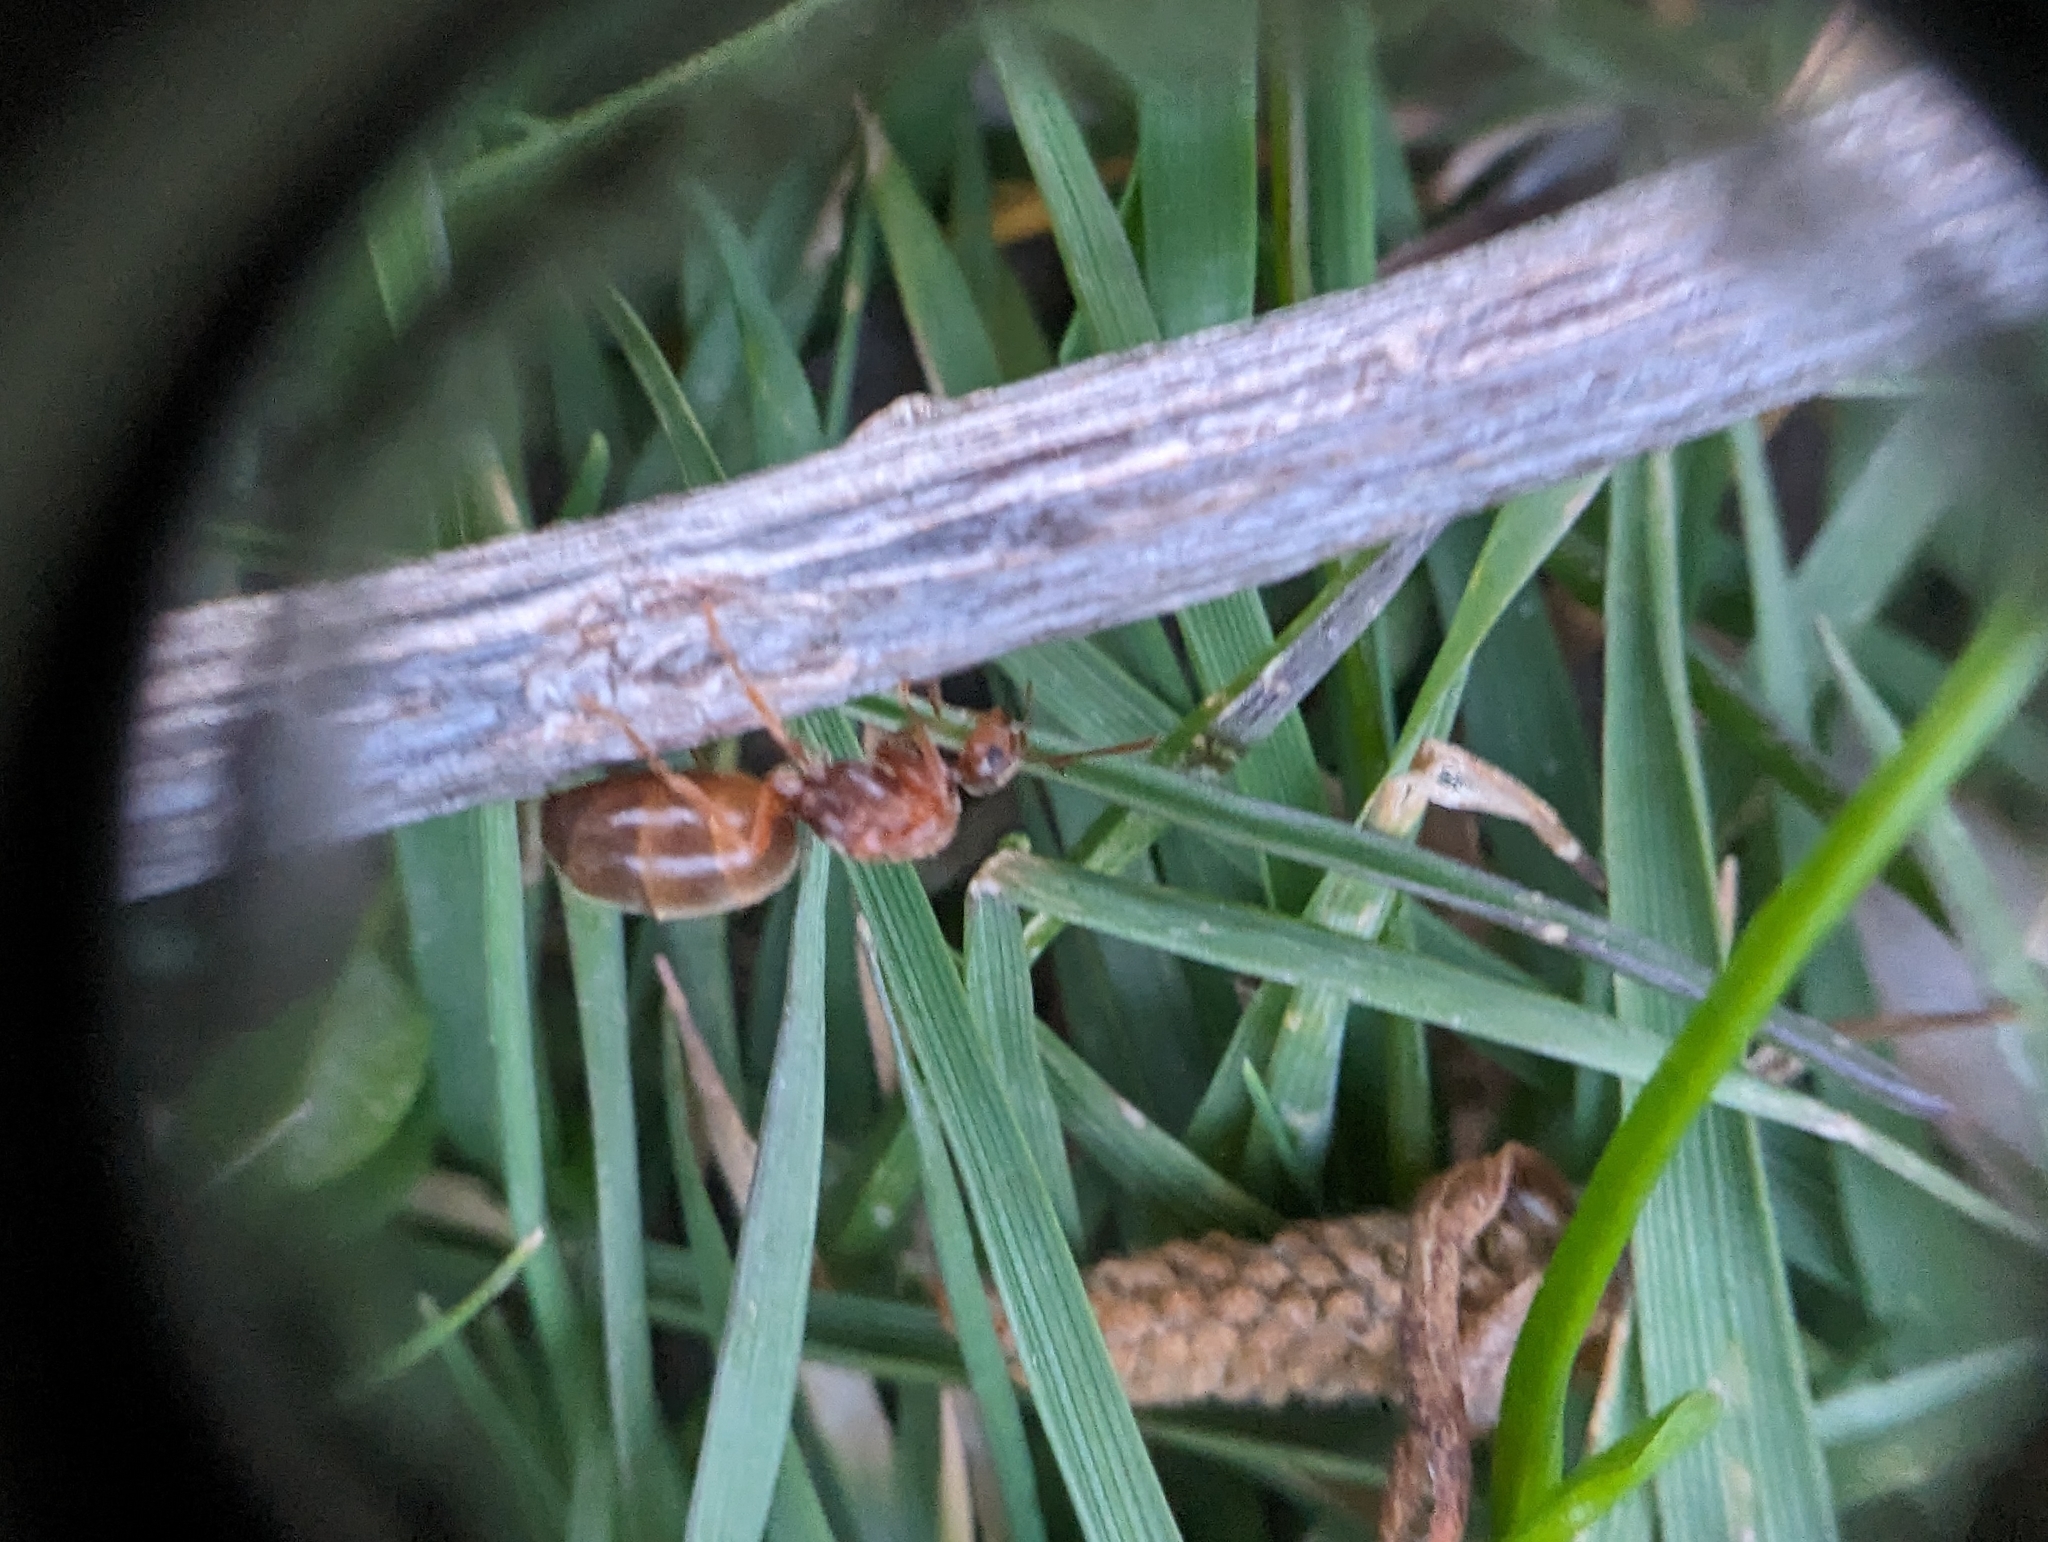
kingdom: Animalia
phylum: Arthropoda
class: Insecta
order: Hymenoptera
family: Formicidae
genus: Prenolepis
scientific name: Prenolepis imparis
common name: Small honey ant
